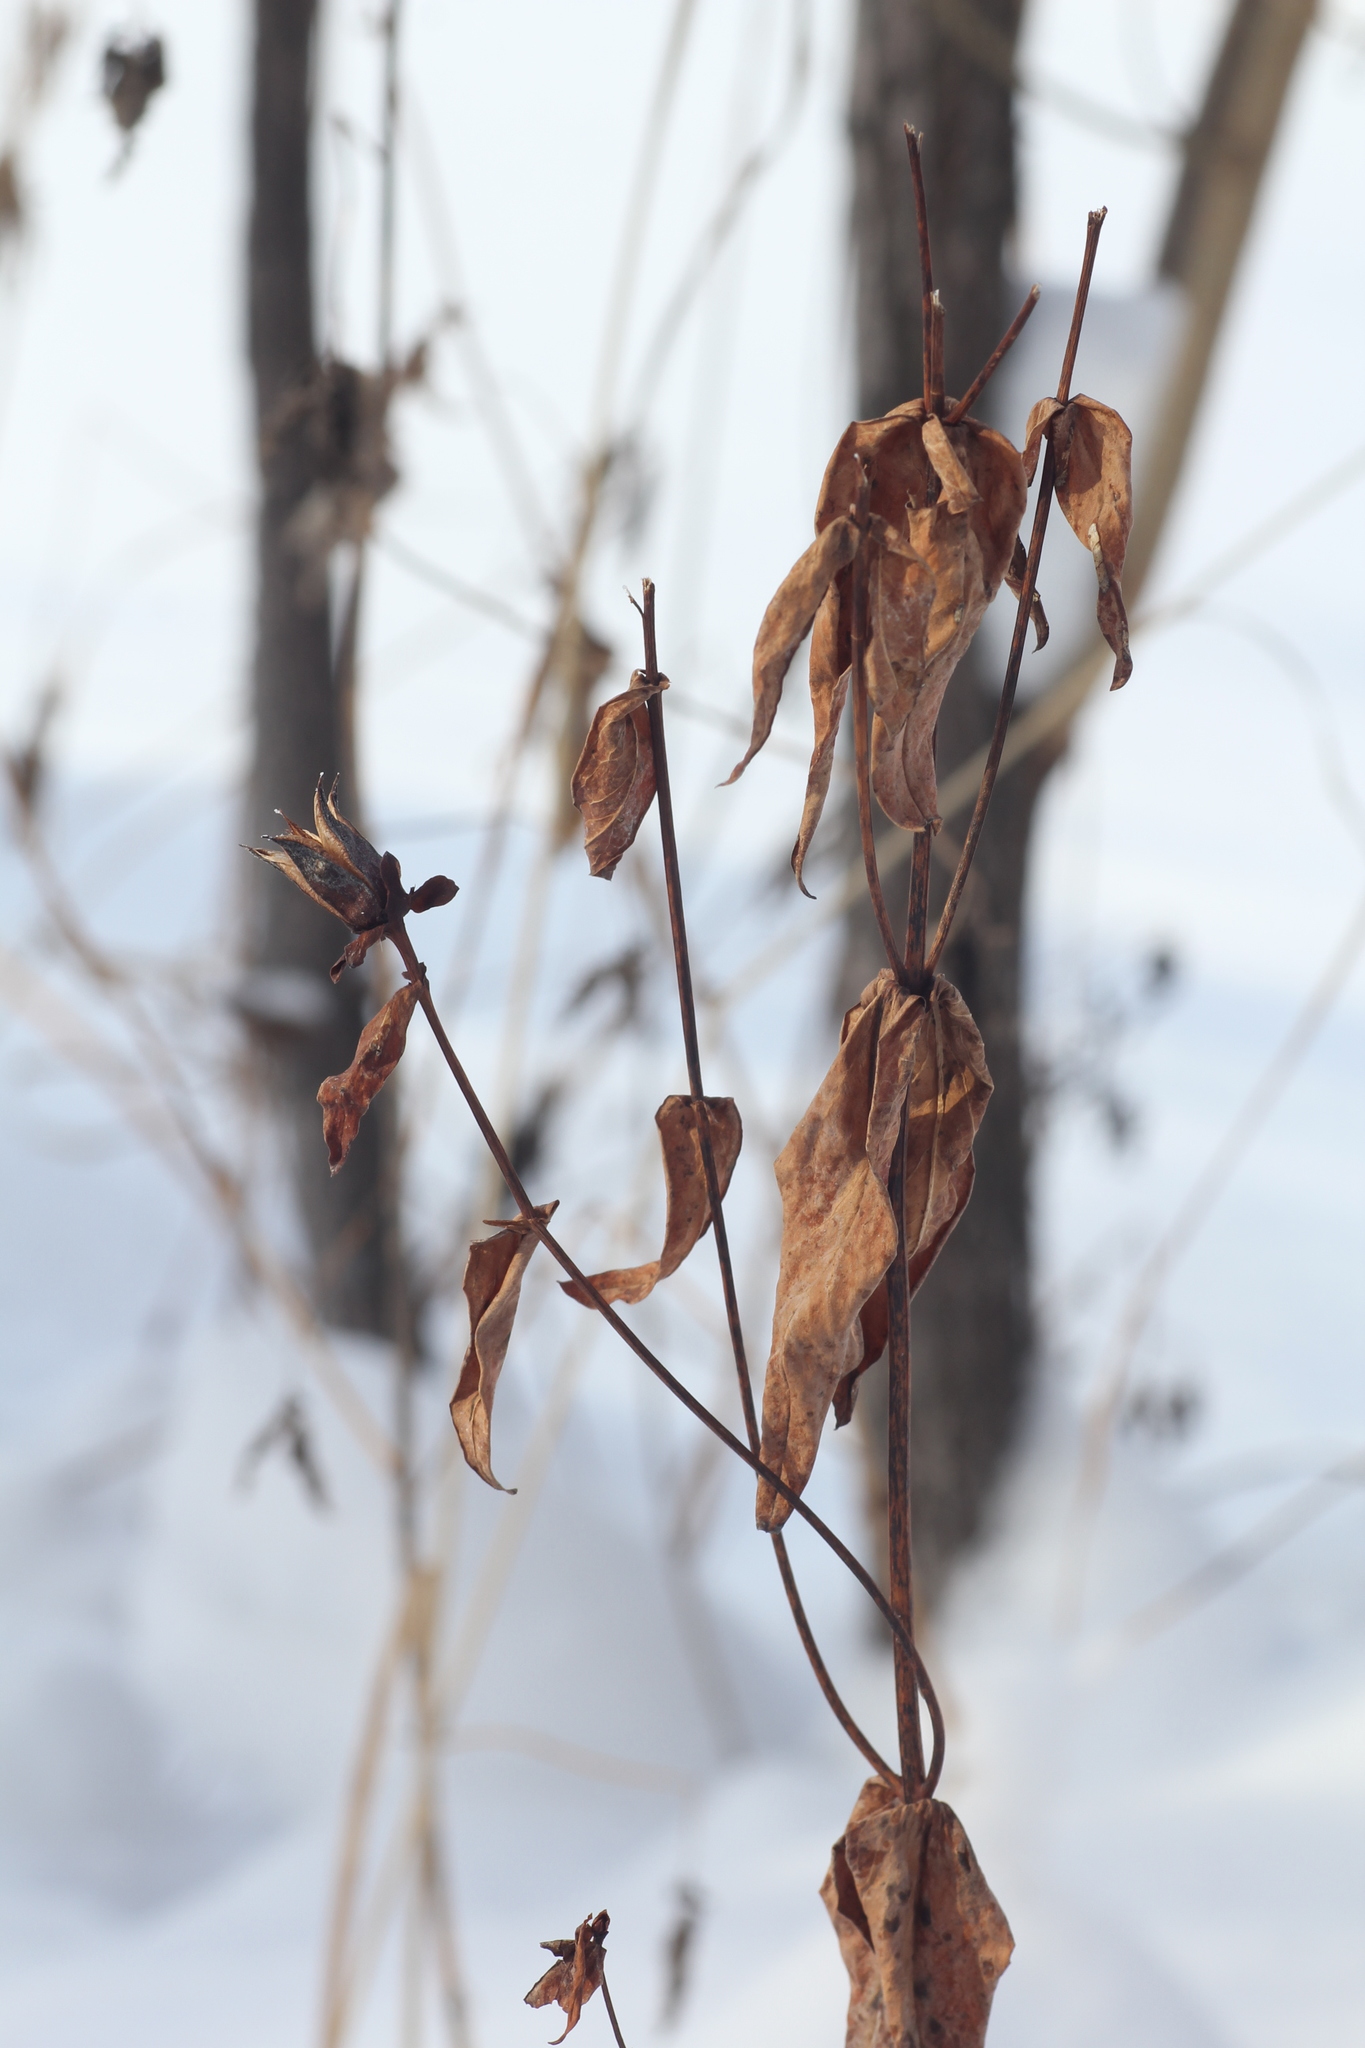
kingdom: Plantae
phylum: Tracheophyta
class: Magnoliopsida
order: Malpighiales
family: Hypericaceae
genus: Hypericum
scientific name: Hypericum ascyron
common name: Giant st. john's-wort
